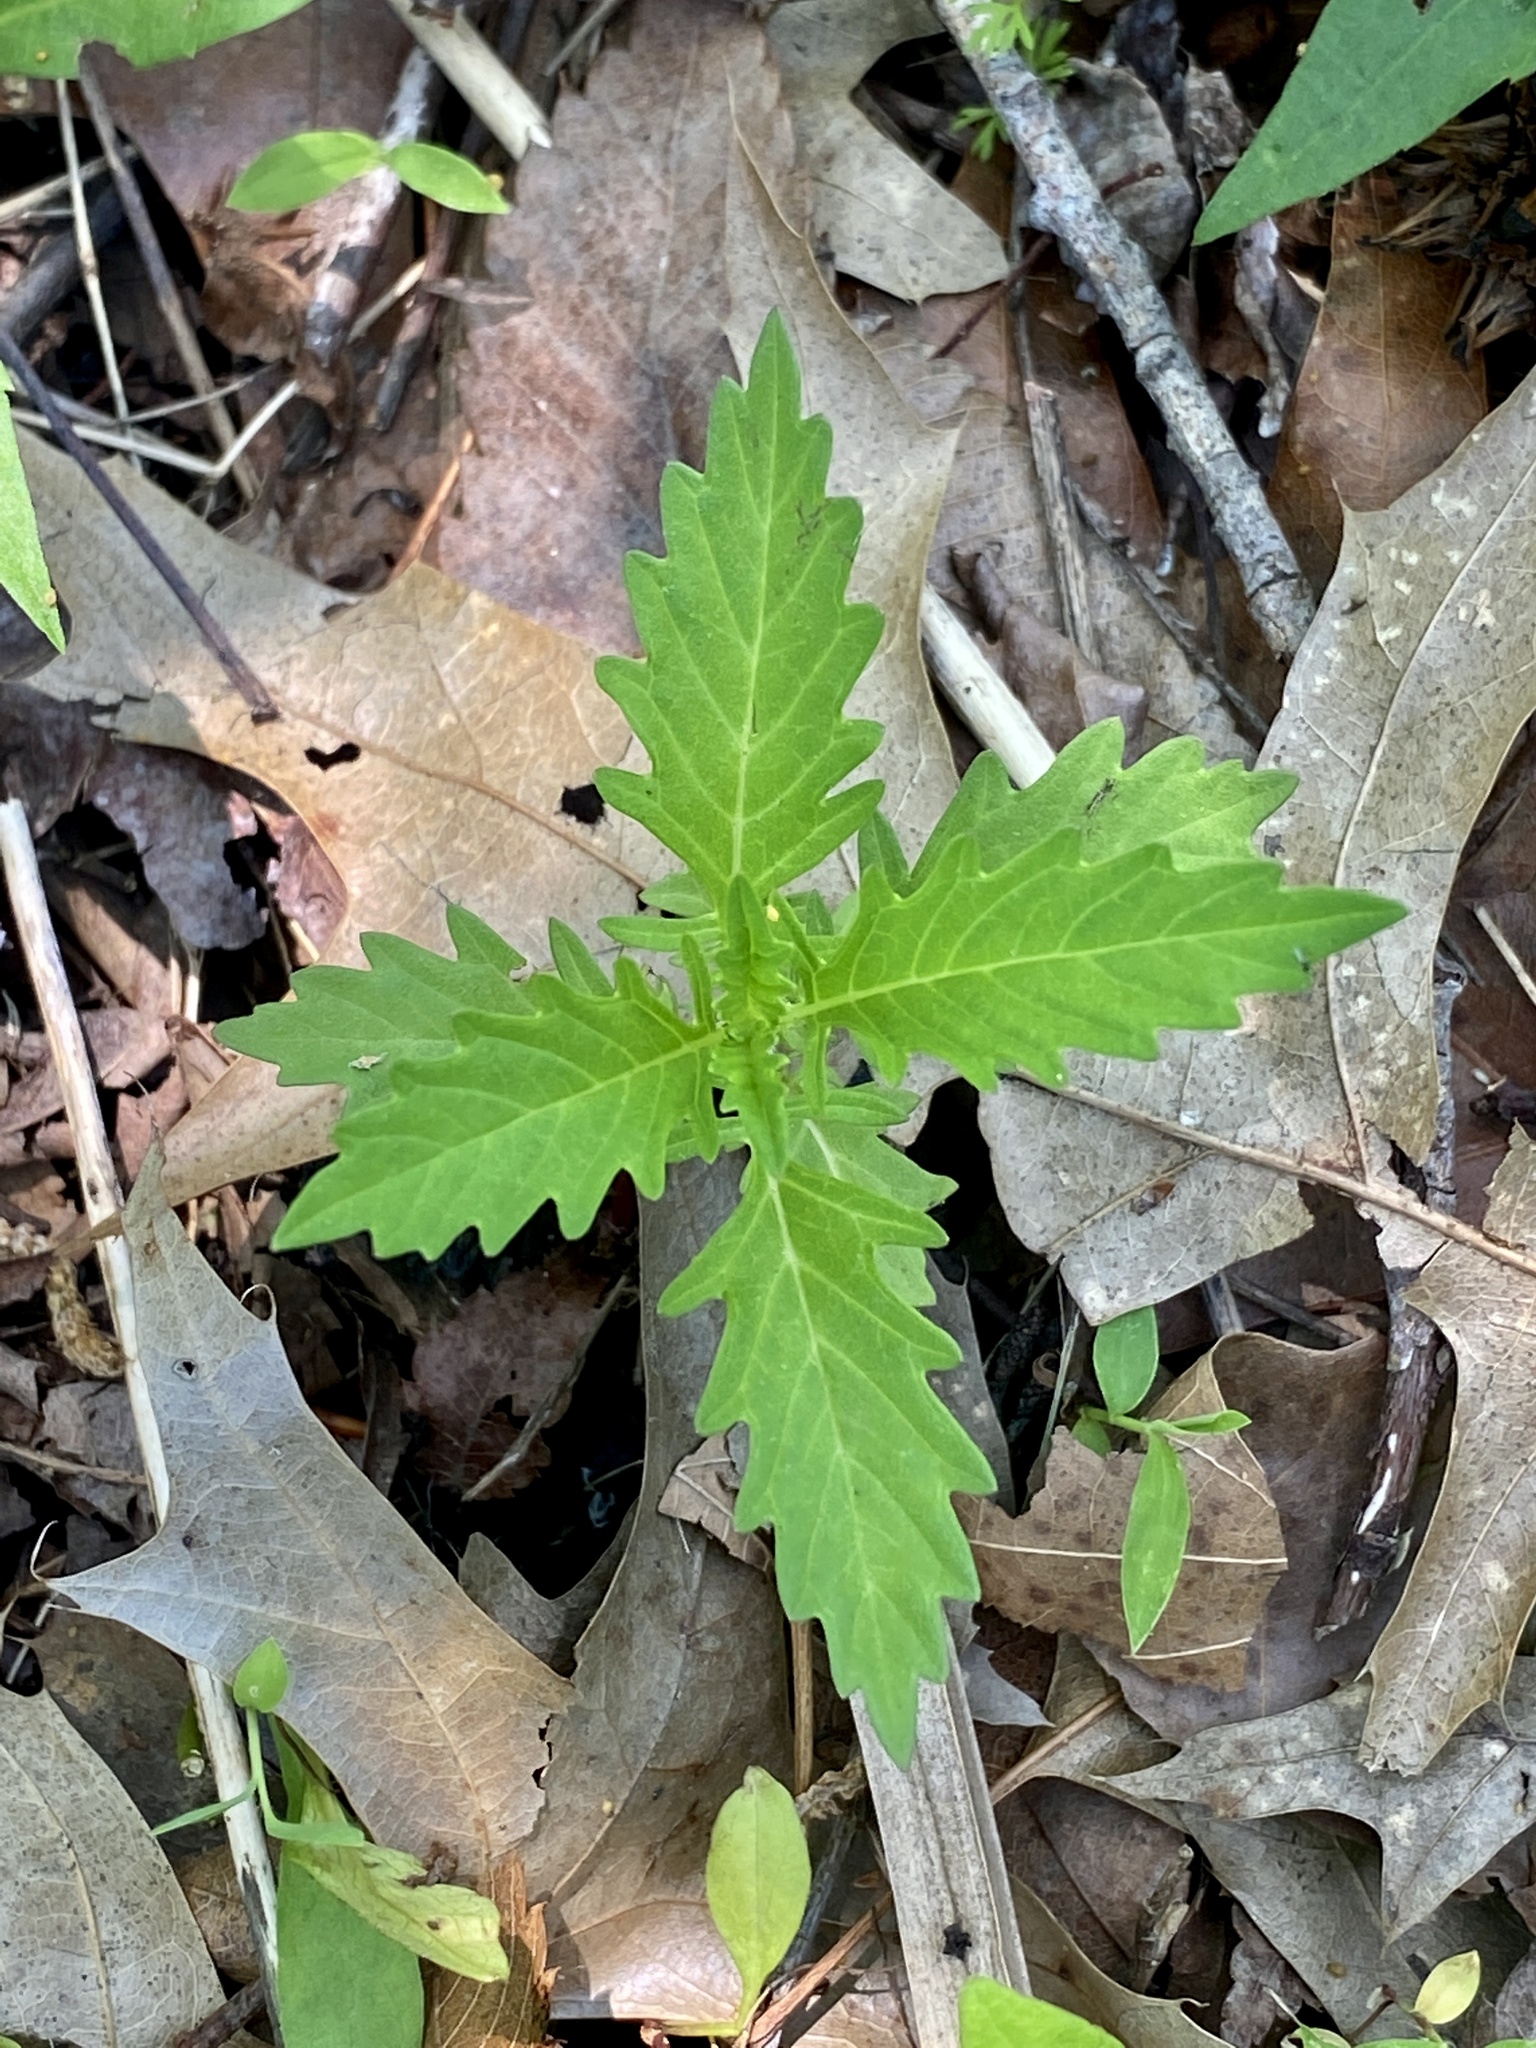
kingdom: Plantae
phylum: Tracheophyta
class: Magnoliopsida
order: Lamiales
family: Lamiaceae
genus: Lycopus
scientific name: Lycopus europaeus
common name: European bugleweed
